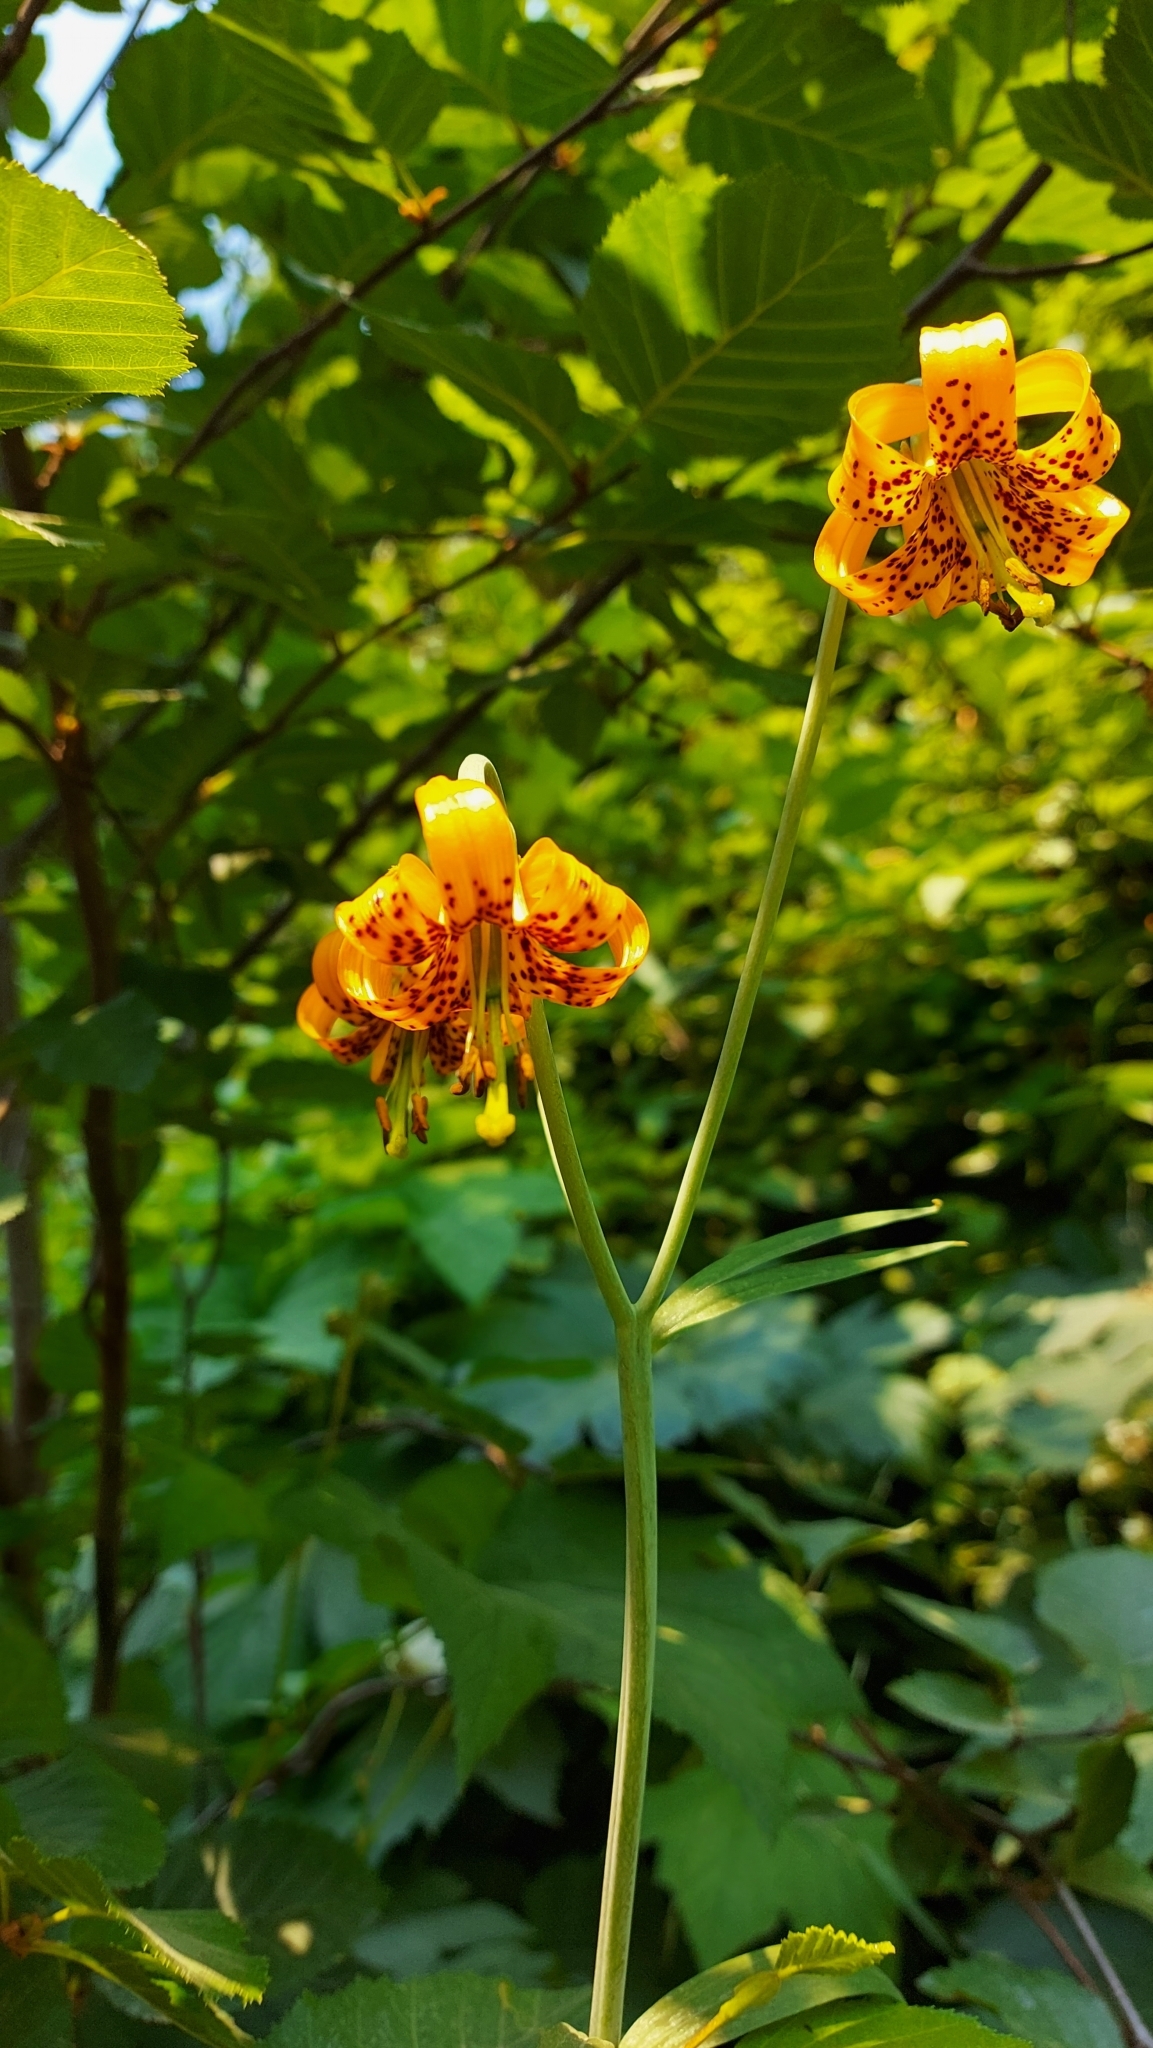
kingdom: Plantae
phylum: Tracheophyta
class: Liliopsida
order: Liliales
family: Liliaceae
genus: Lilium
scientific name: Lilium columbianum
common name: Columbia lily
